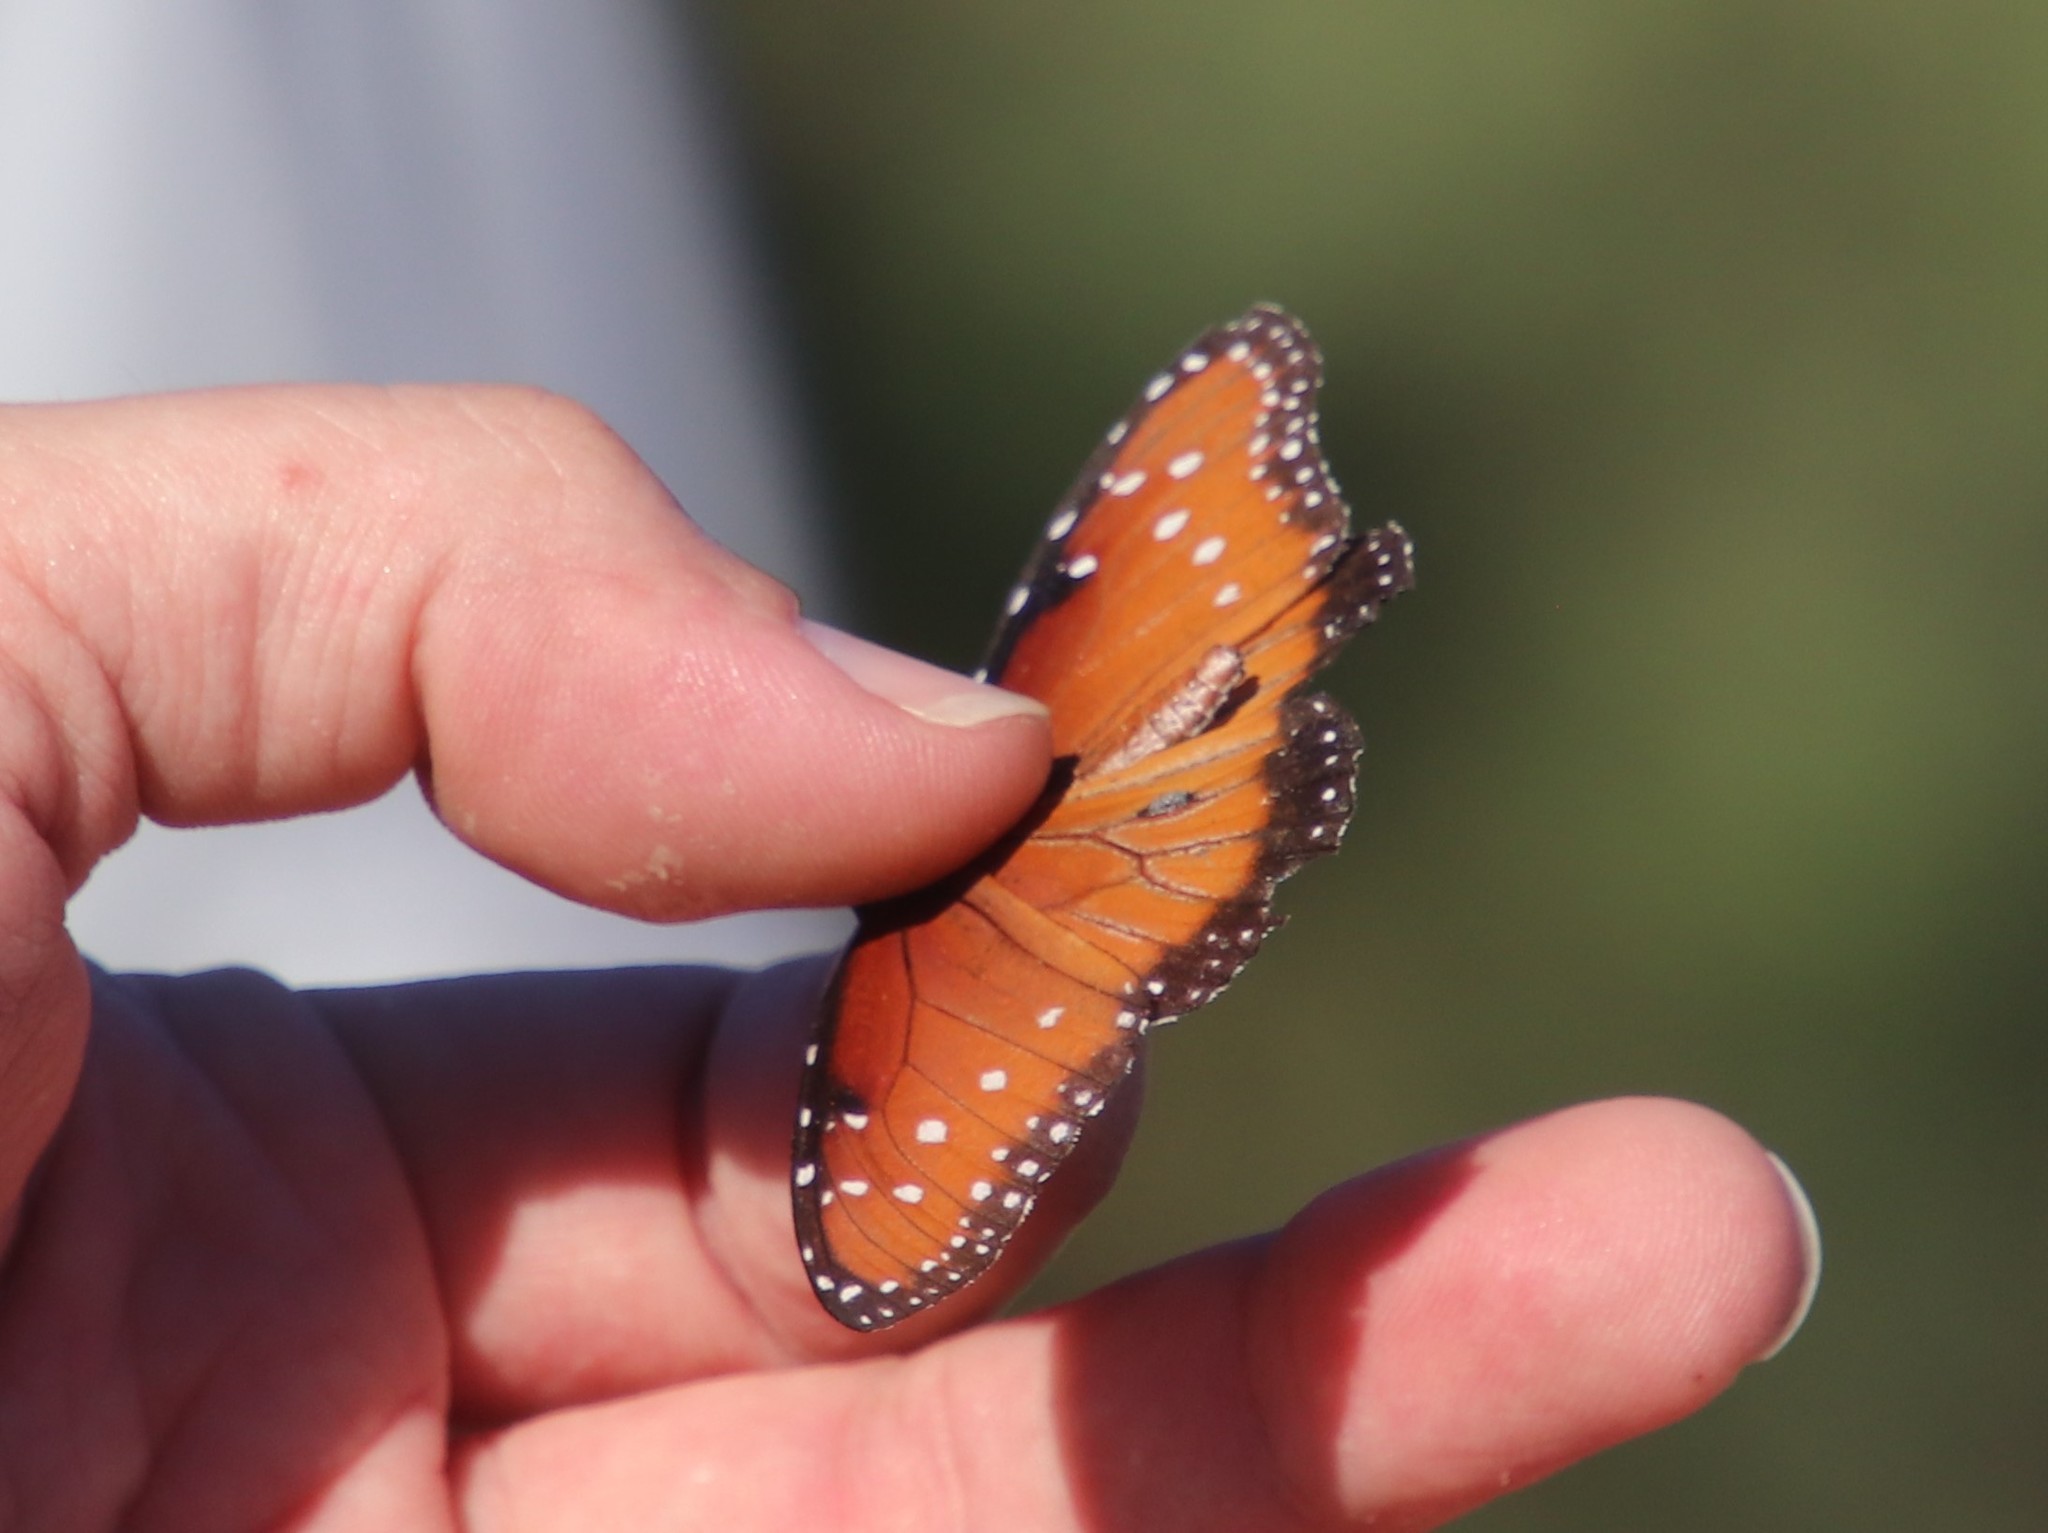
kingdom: Animalia
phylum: Arthropoda
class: Insecta
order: Lepidoptera
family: Nymphalidae
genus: Danaus
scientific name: Danaus gilippus
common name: Queen
